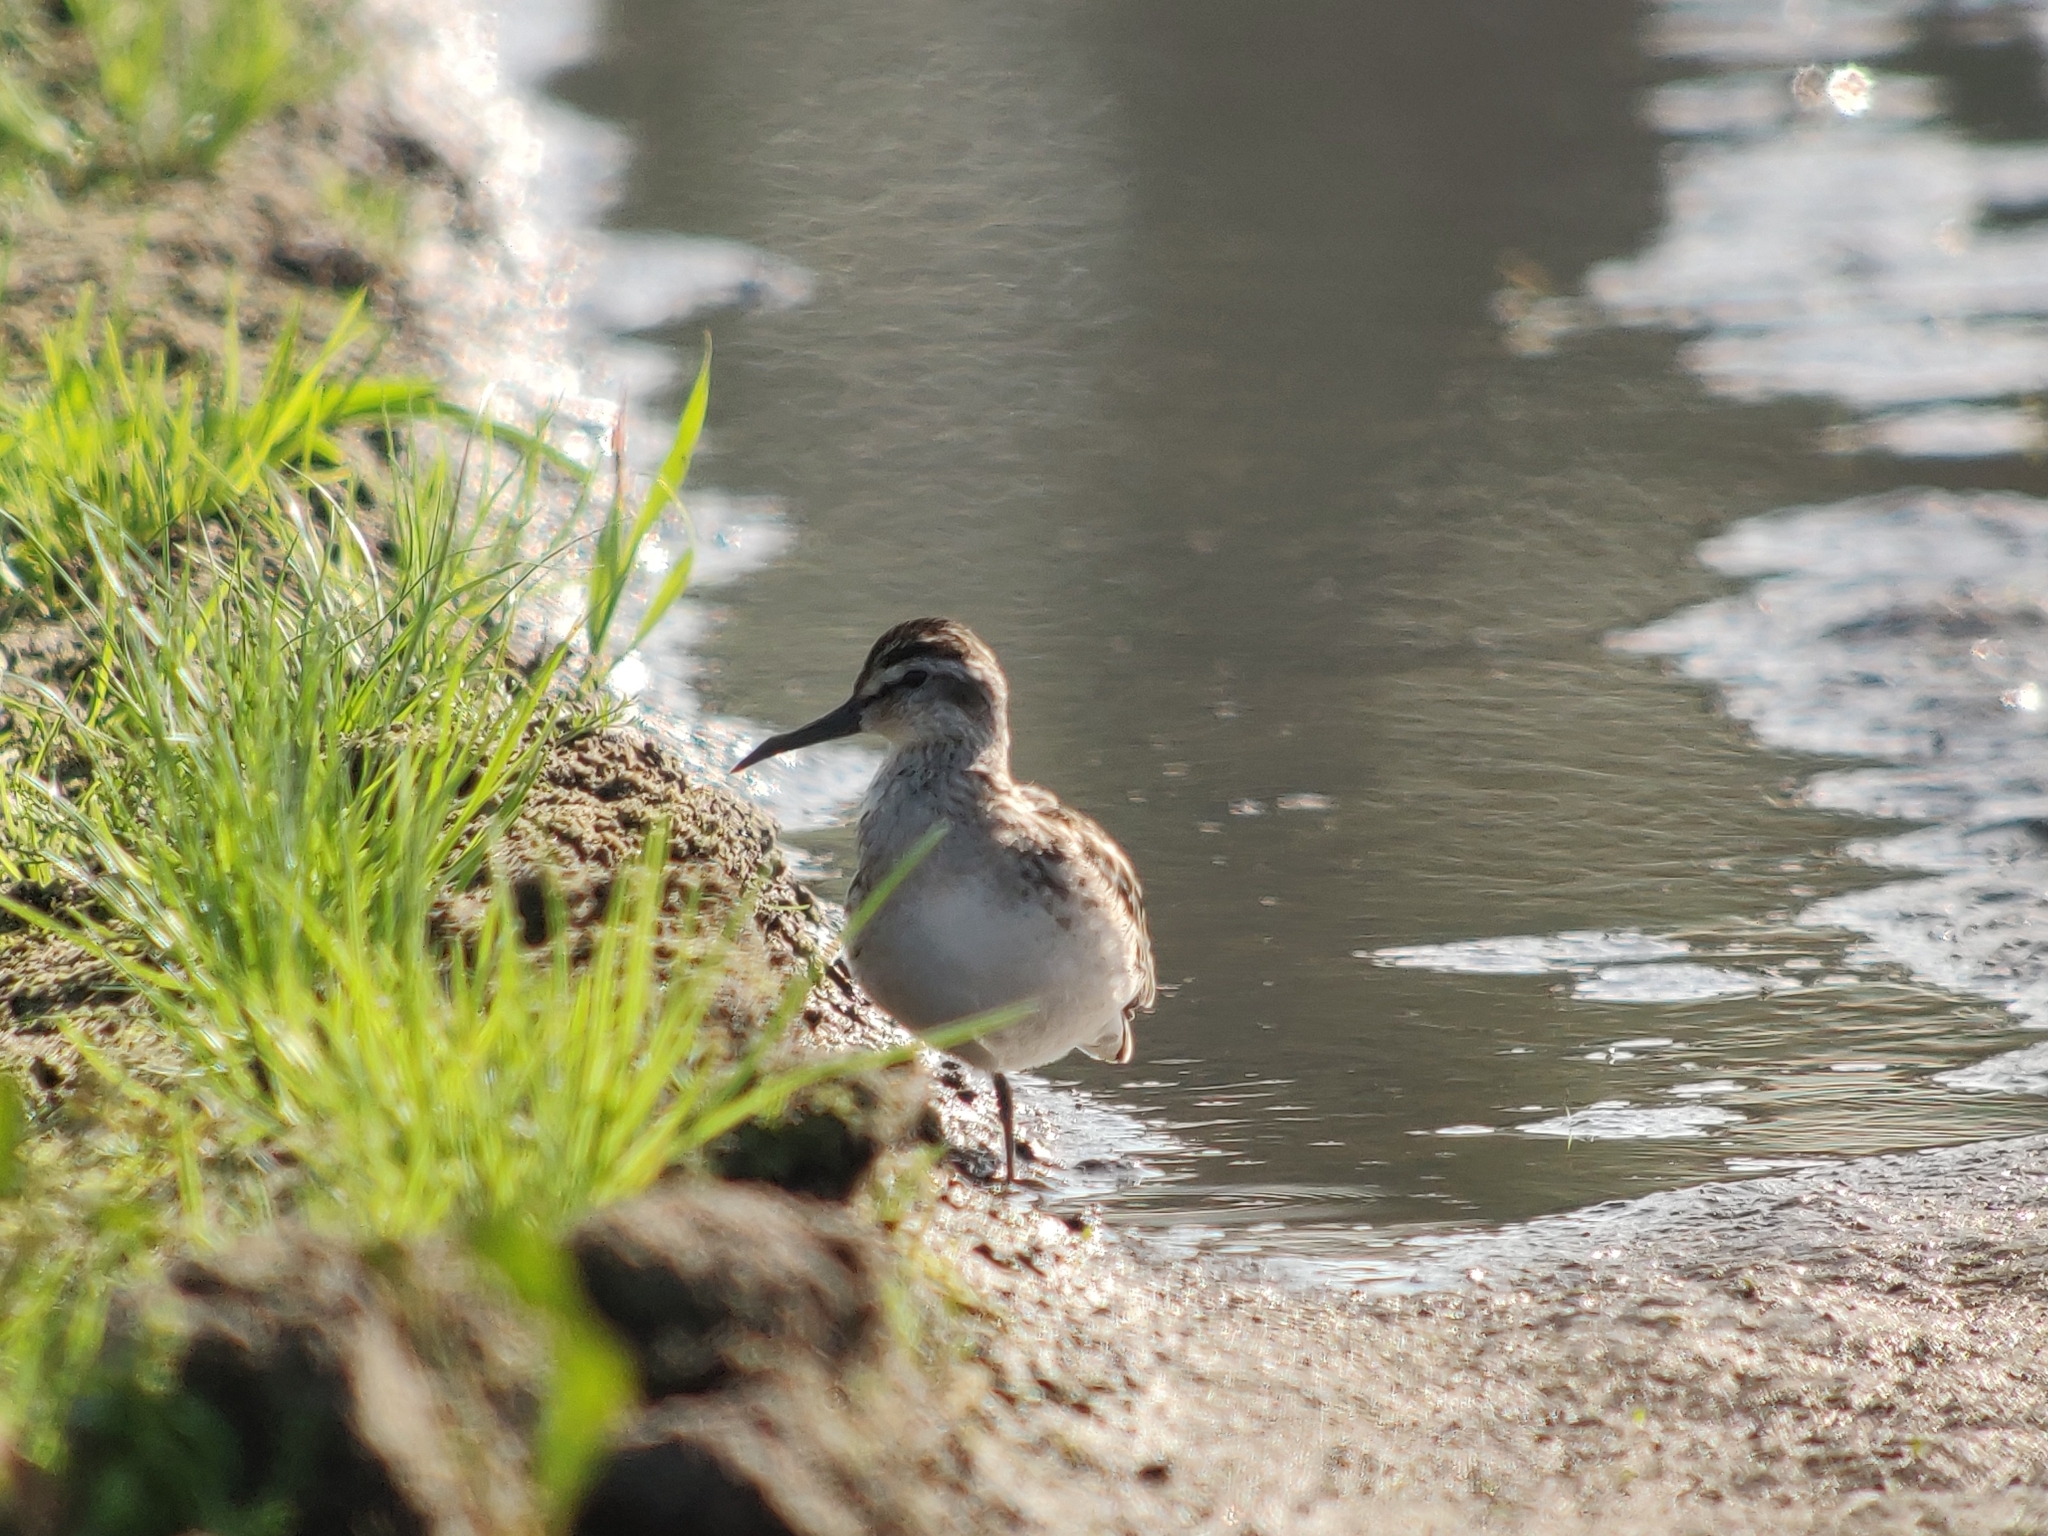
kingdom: Animalia
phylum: Chordata
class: Aves
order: Charadriiformes
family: Scolopacidae
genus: Calidris
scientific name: Calidris falcinellus
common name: Broad-billed sandpiper
